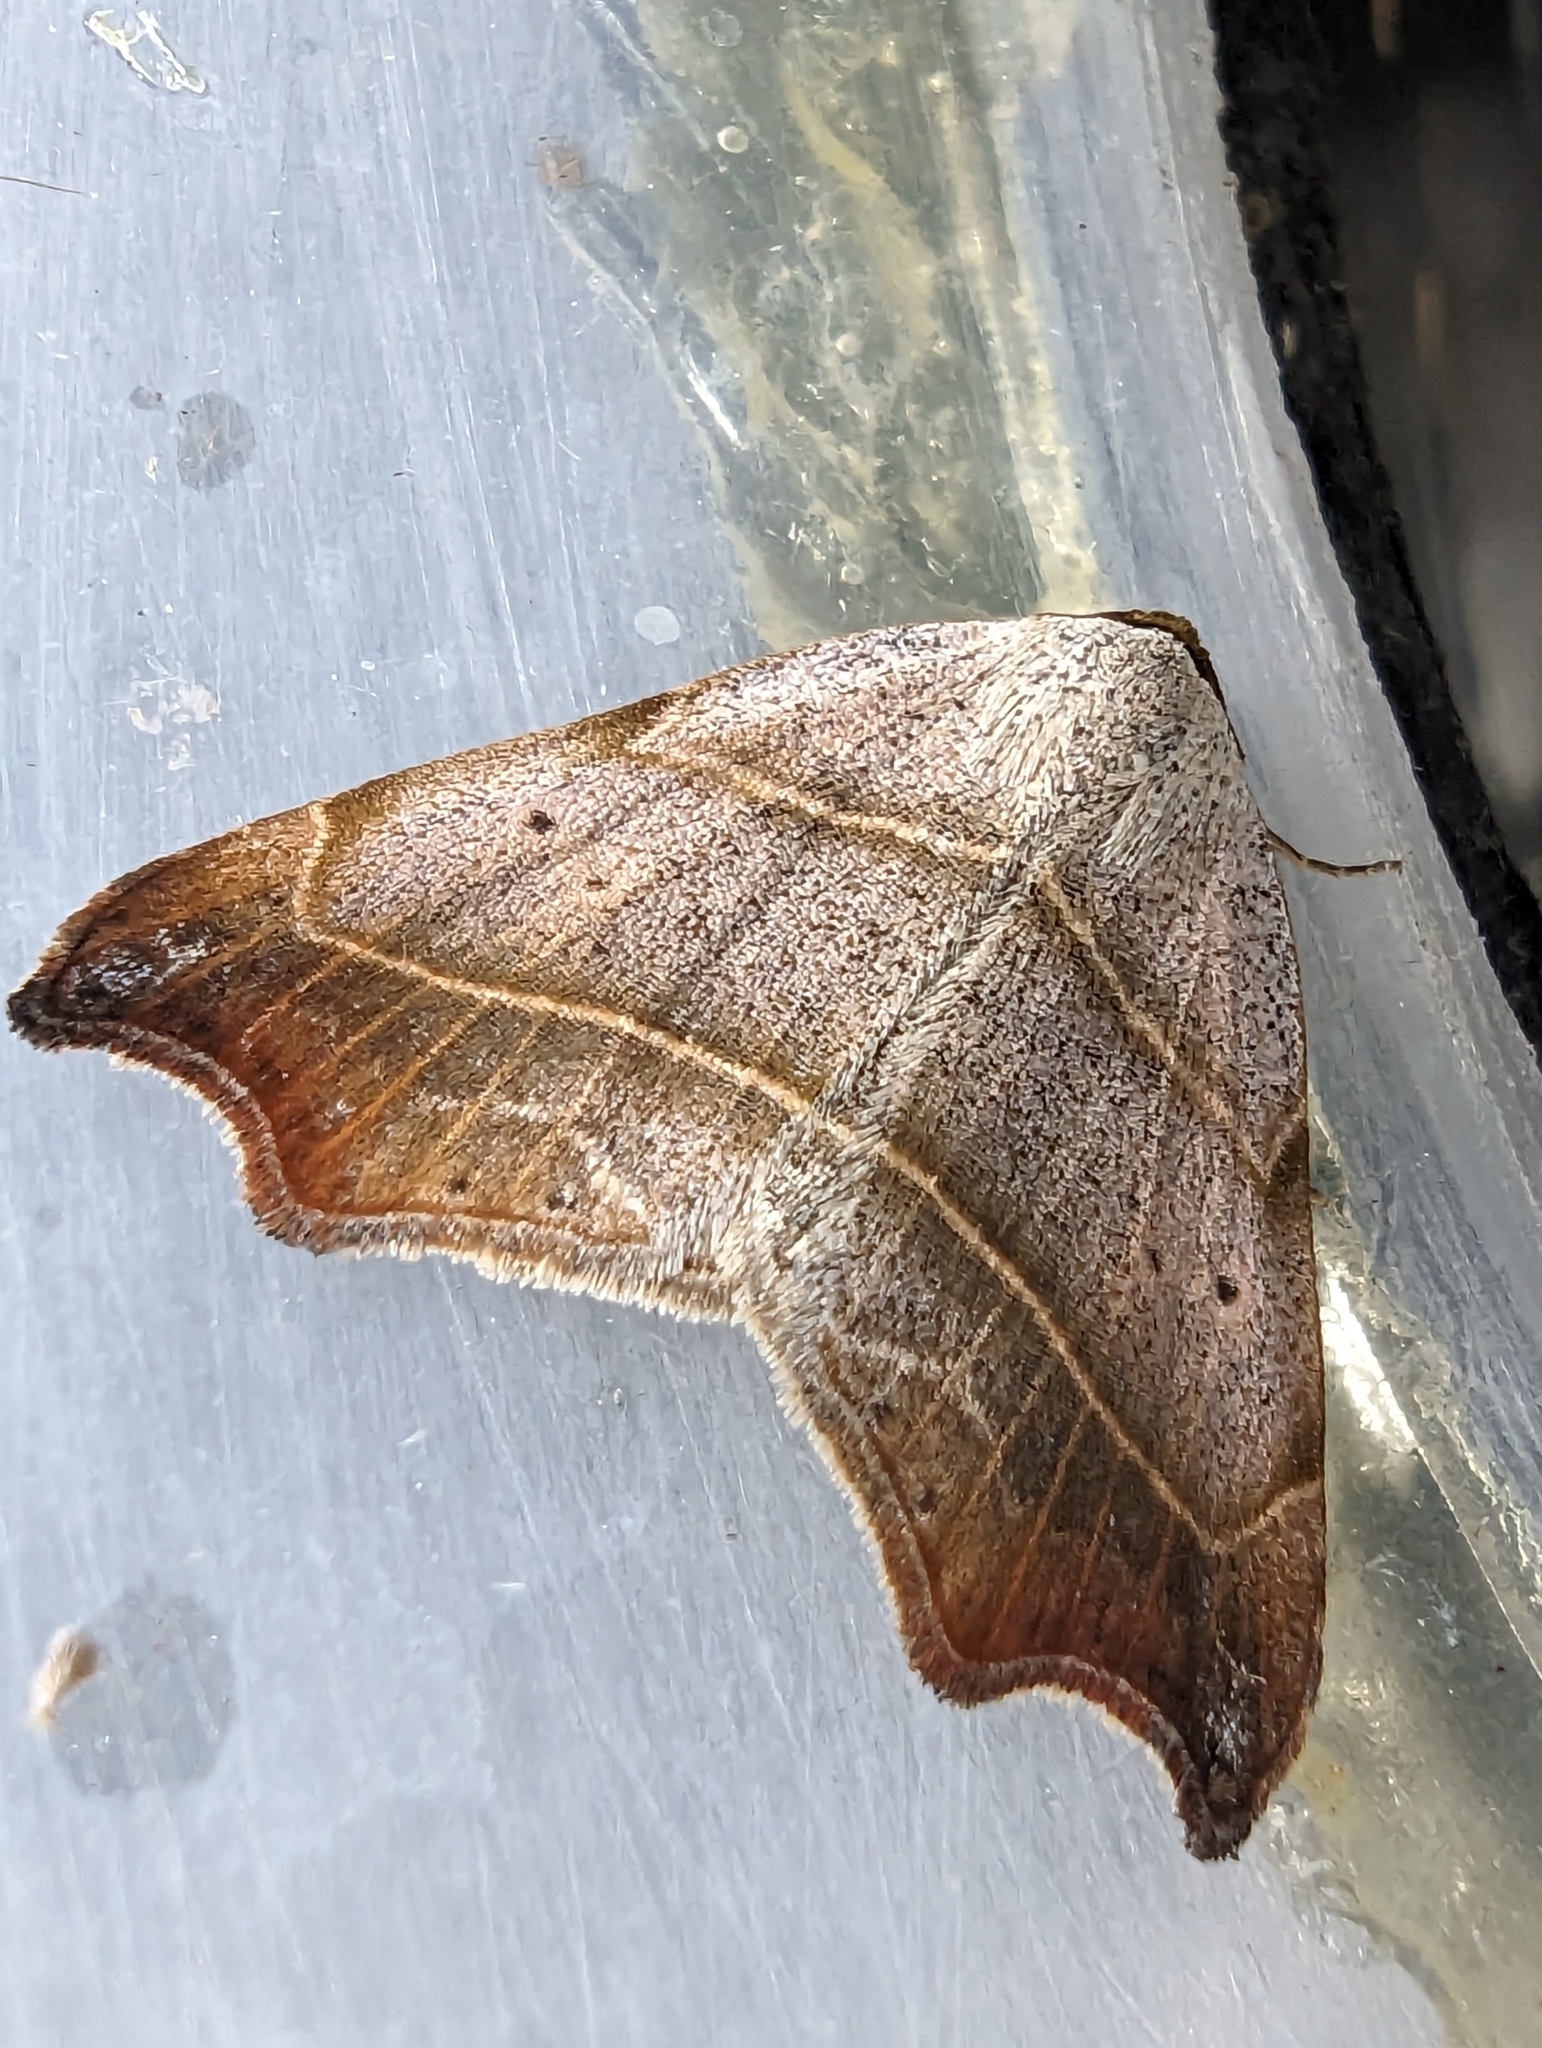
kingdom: Animalia
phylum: Arthropoda
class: Insecta
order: Lepidoptera
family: Erebidae
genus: Laspeyria
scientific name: Laspeyria flexula
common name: Beautiful hook-tip
